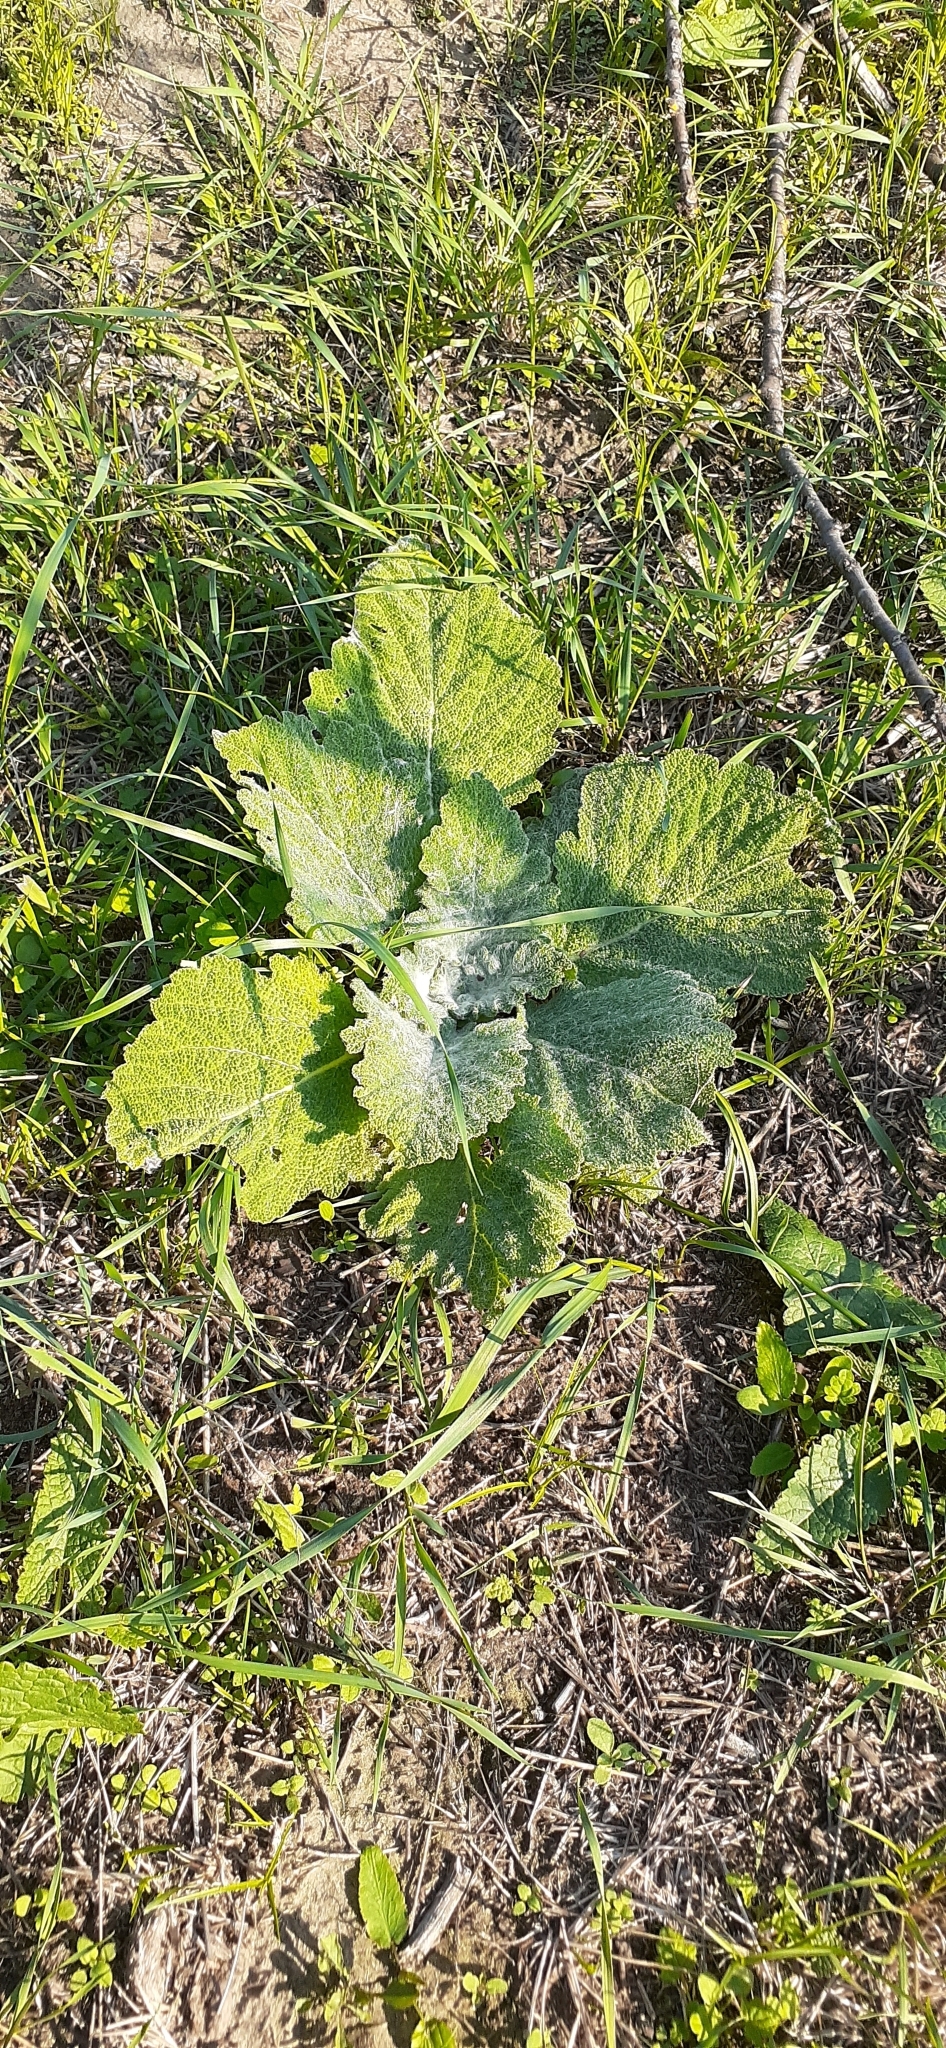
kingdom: Plantae
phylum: Tracheophyta
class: Magnoliopsida
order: Lamiales
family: Lamiaceae
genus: Salvia
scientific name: Salvia aethiopis
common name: Mediterranean sage
